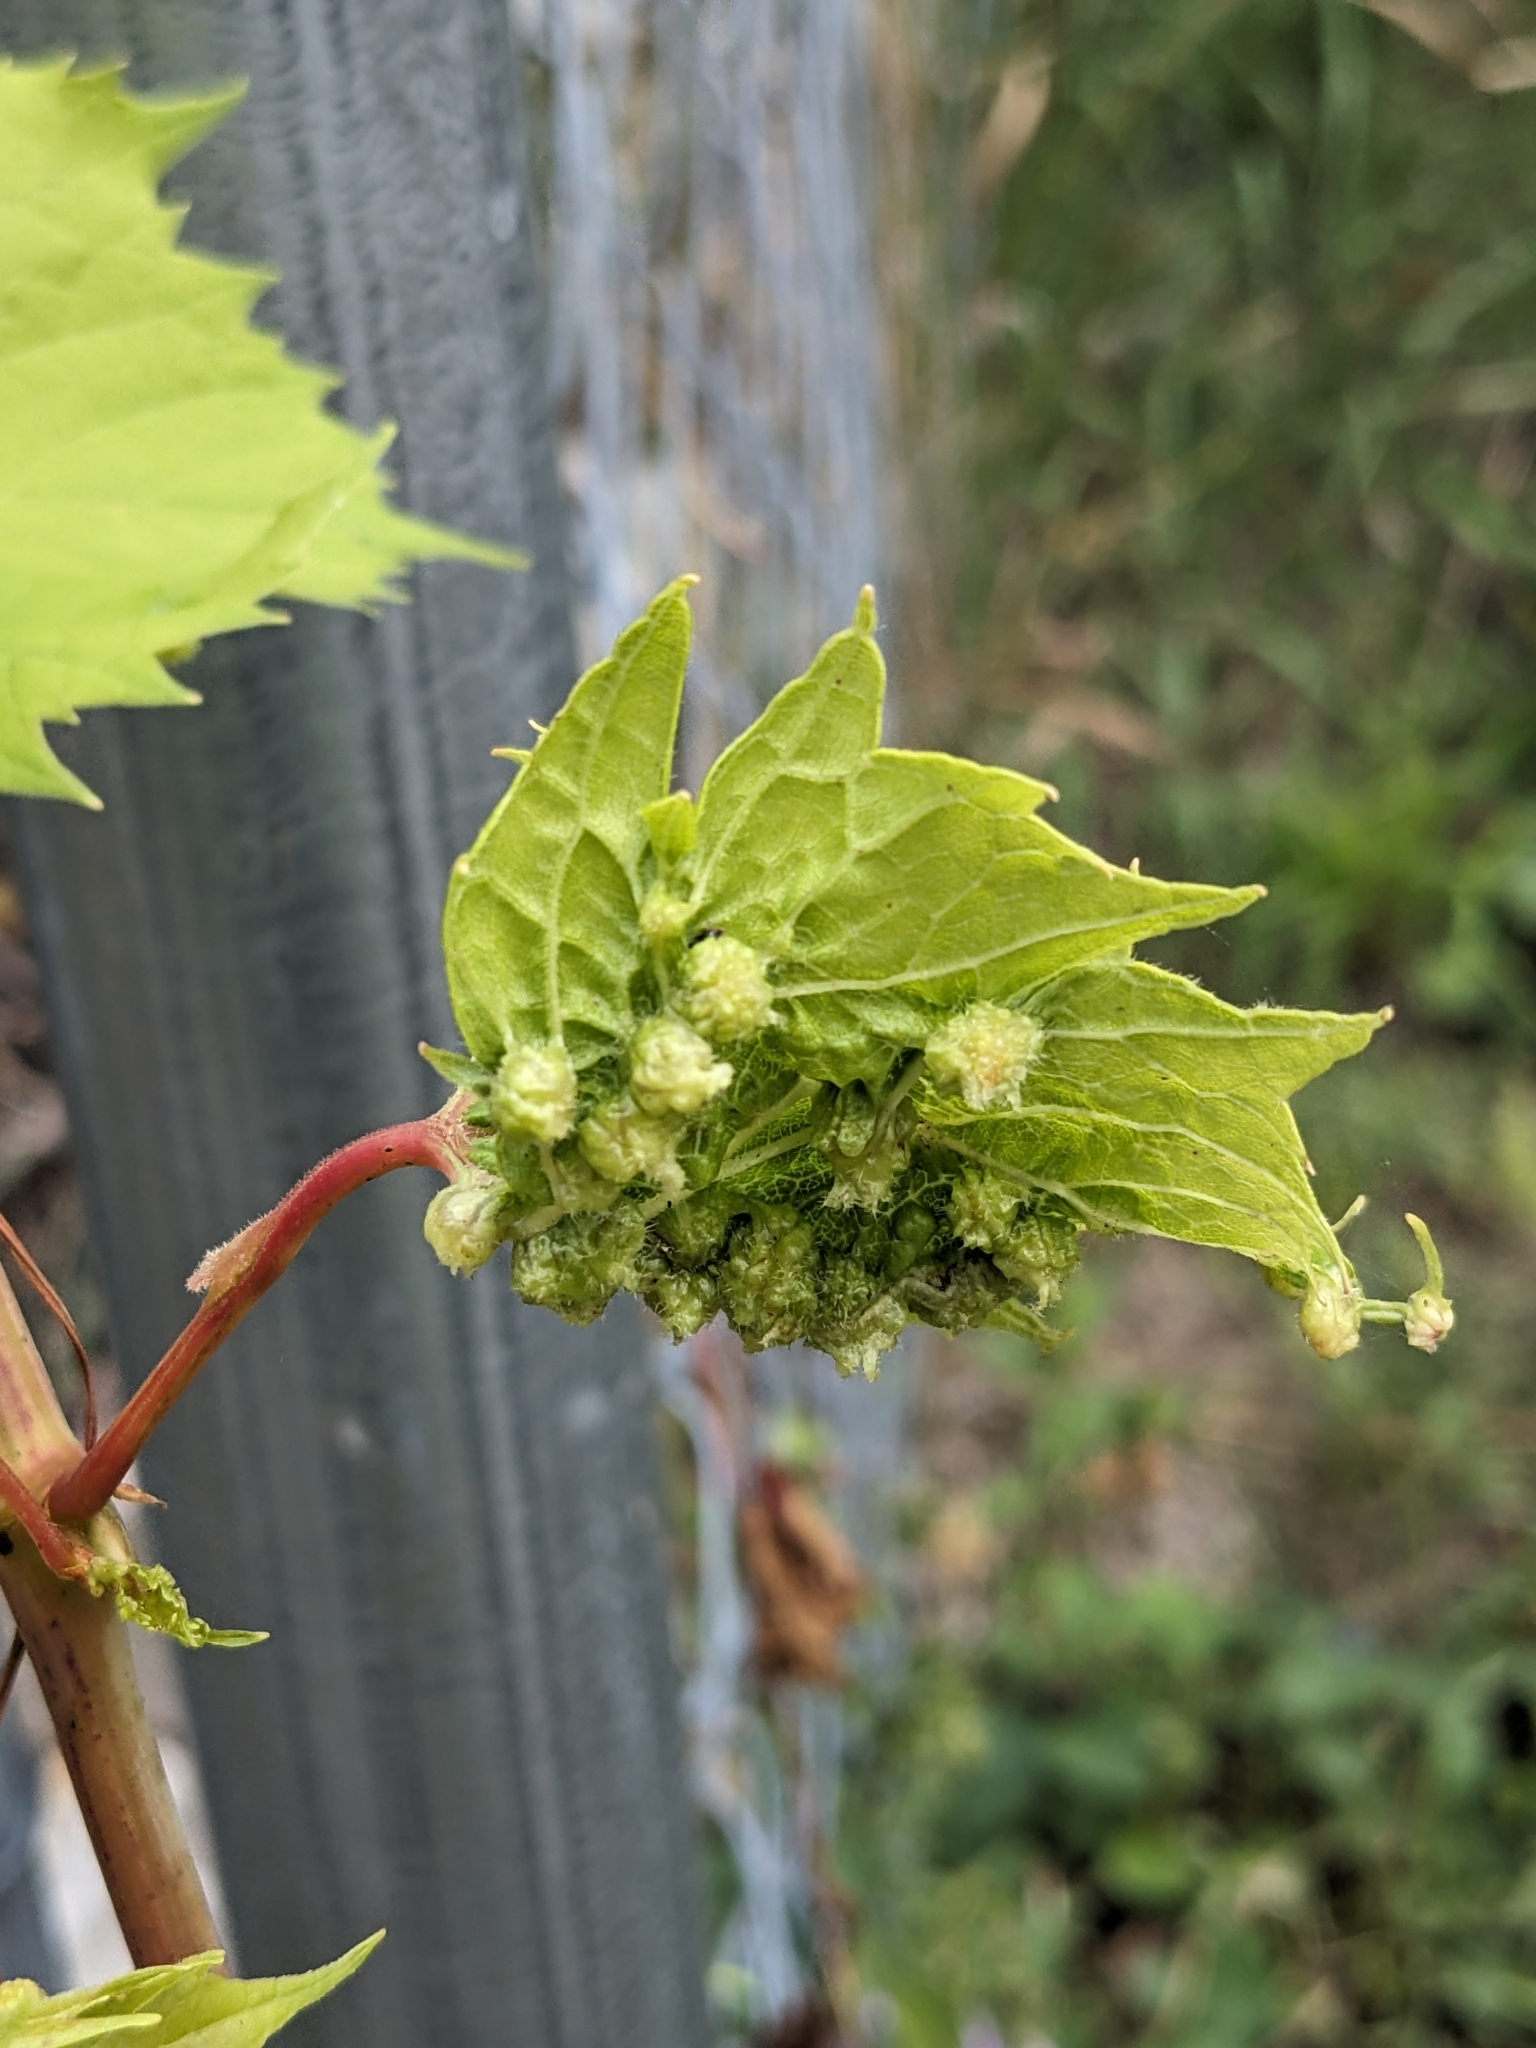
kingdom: Animalia
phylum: Arthropoda
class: Insecta
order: Hemiptera
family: Phylloxeridae
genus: Daktulosphaira
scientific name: Daktulosphaira vitifoliae
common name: Grape phylloxera
